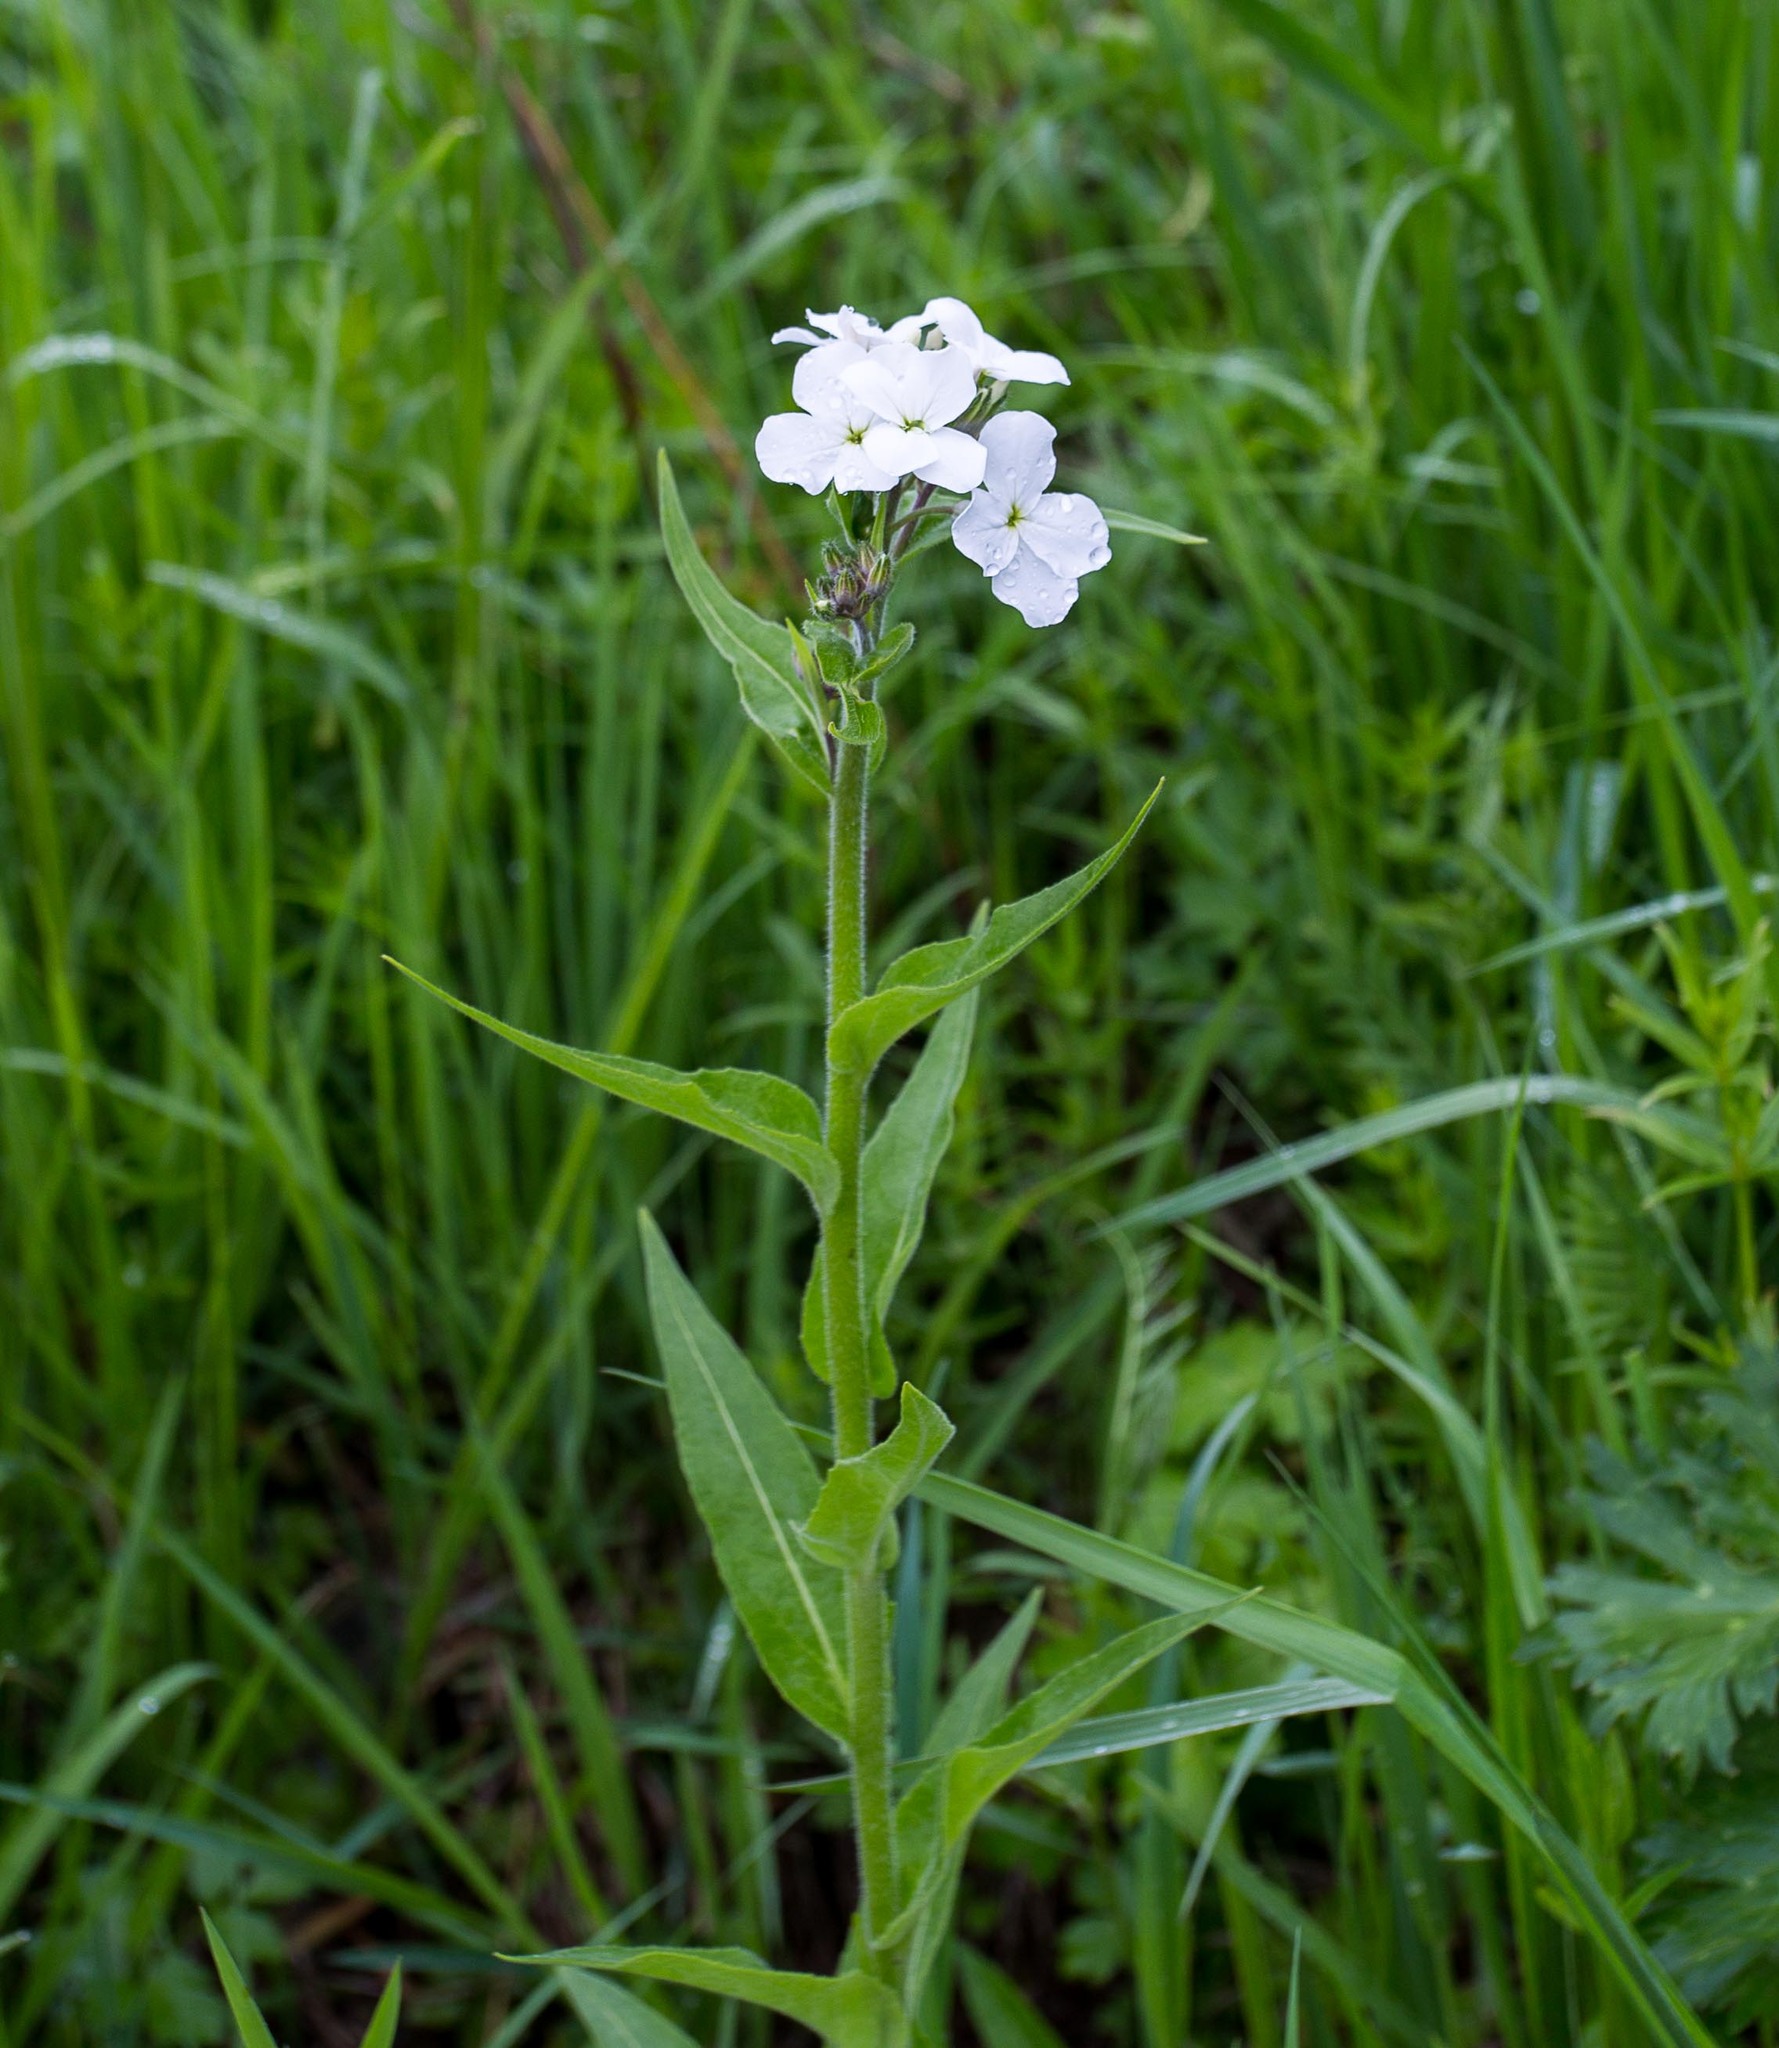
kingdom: Plantae
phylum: Tracheophyta
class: Magnoliopsida
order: Brassicales
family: Brassicaceae
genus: Hesperis
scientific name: Hesperis sibirica
